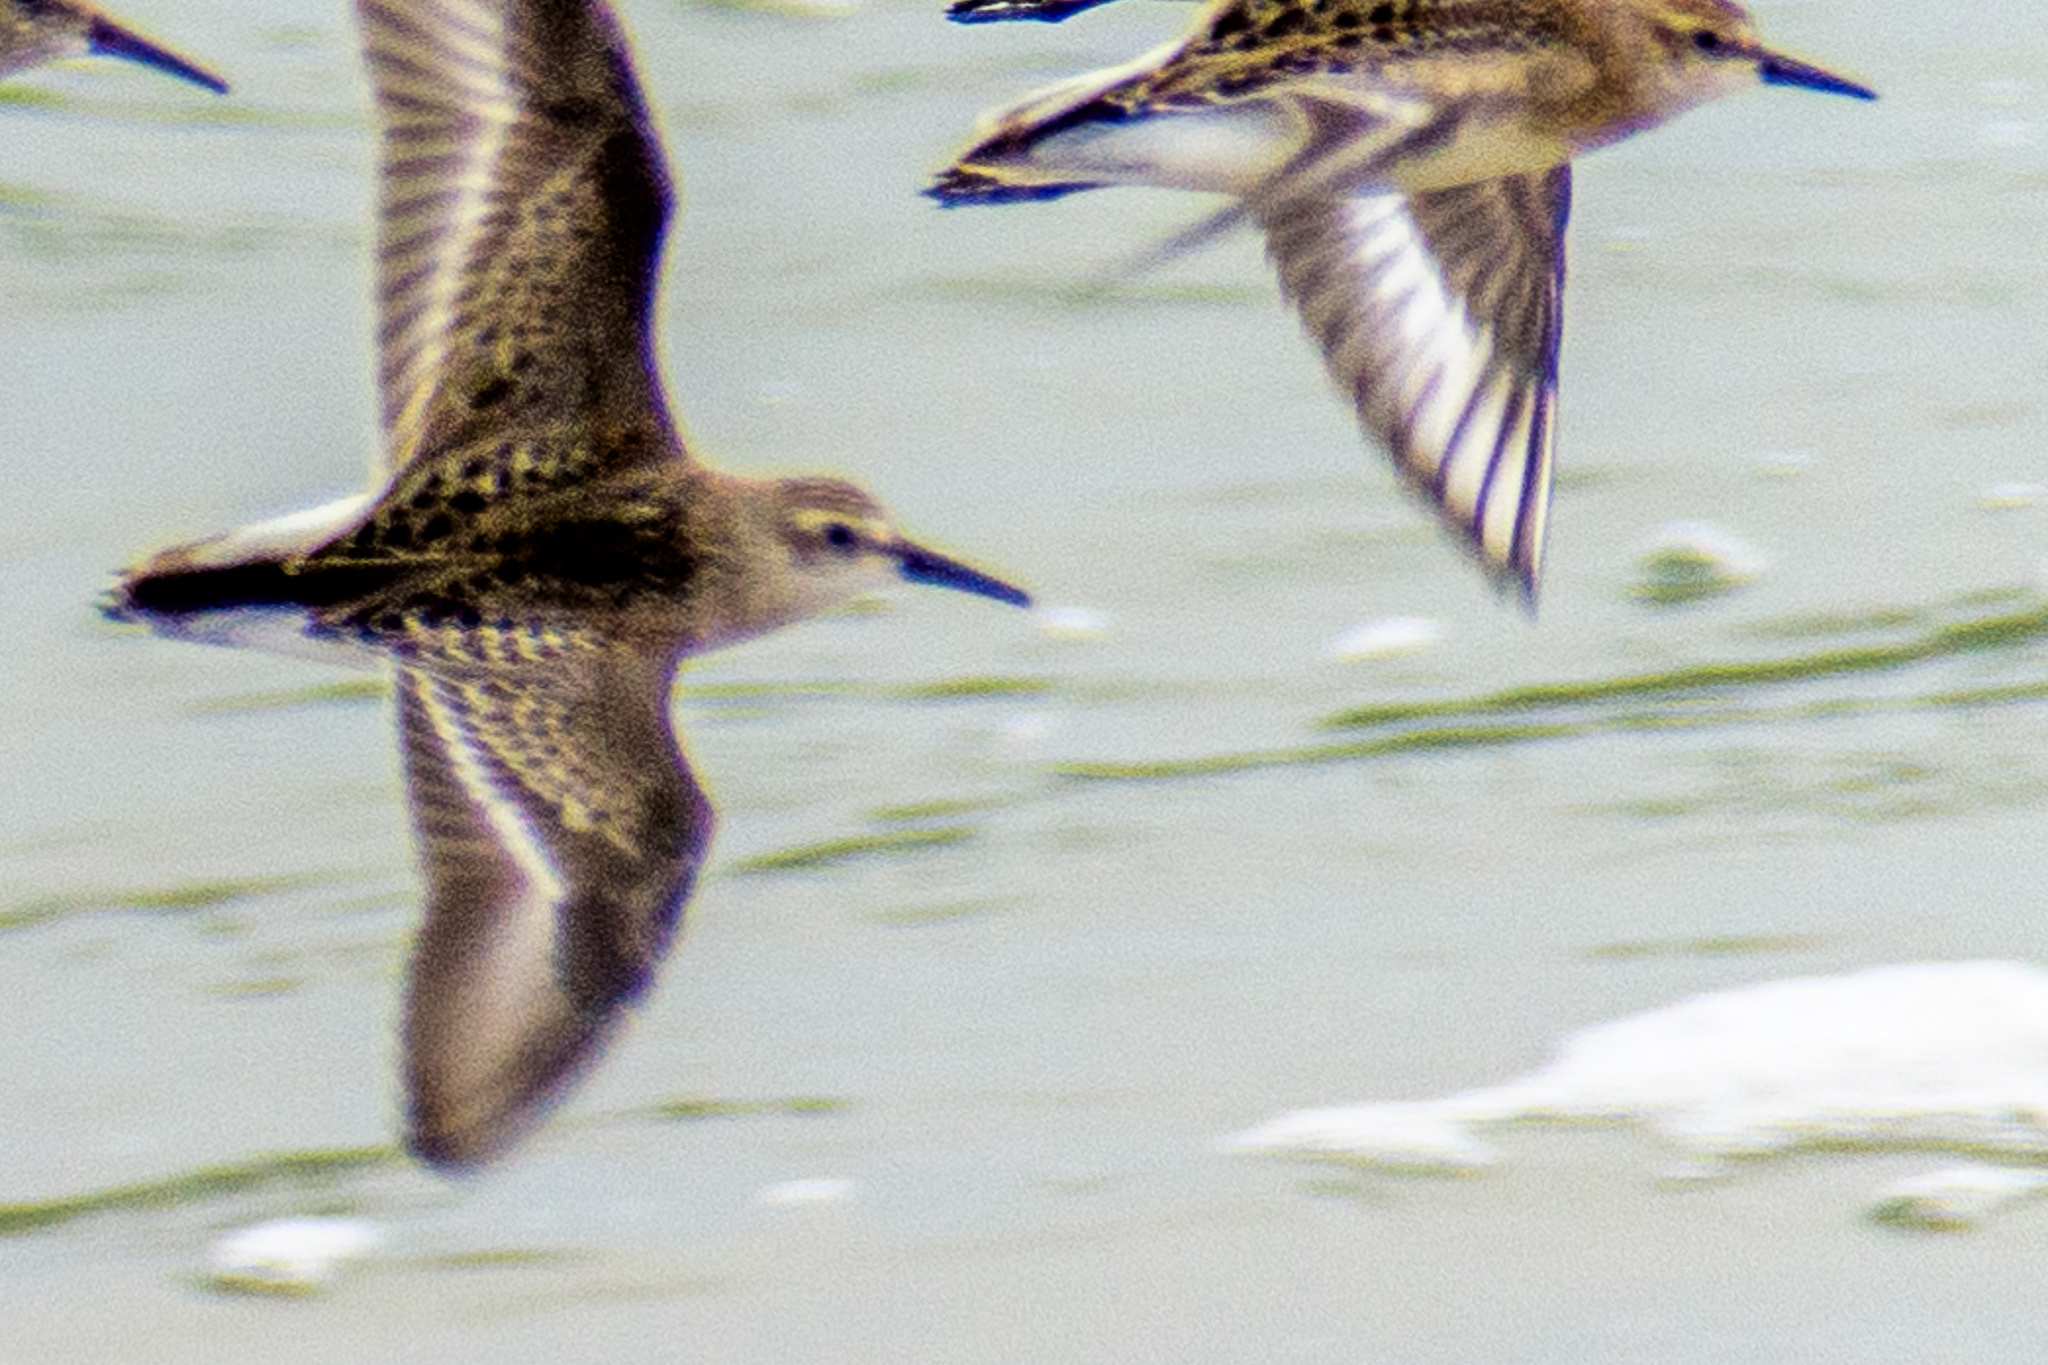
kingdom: Animalia
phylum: Chordata
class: Aves
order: Charadriiformes
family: Scolopacidae
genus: Calidris
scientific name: Calidris pusilla
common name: Semipalmated sandpiper
